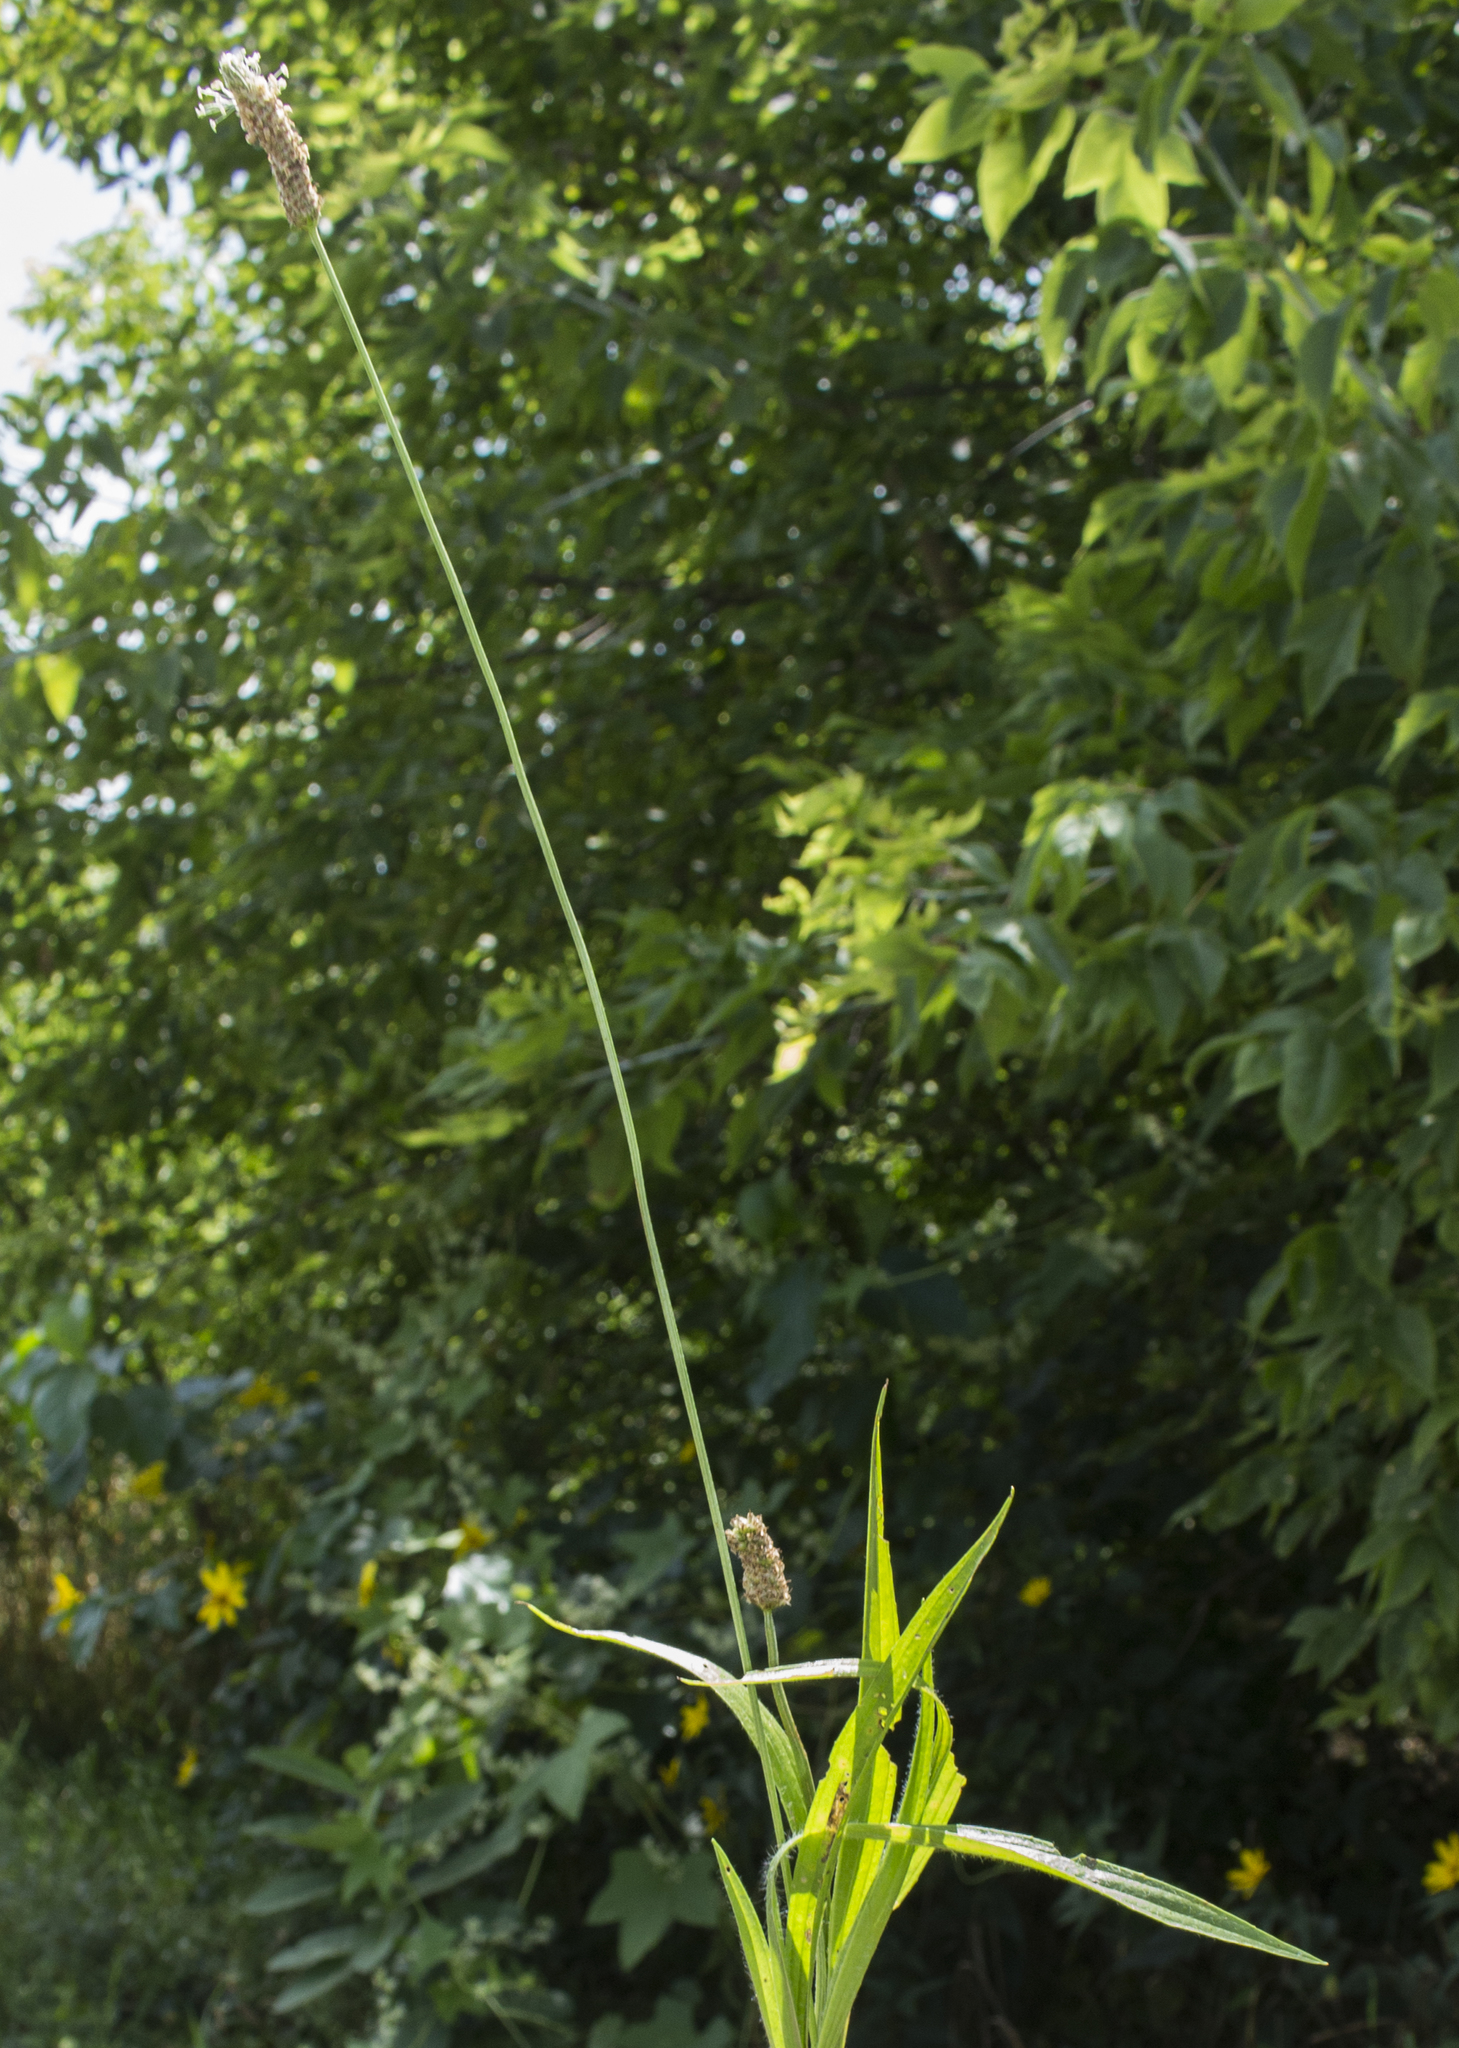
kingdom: Plantae
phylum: Tracheophyta
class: Magnoliopsida
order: Lamiales
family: Plantaginaceae
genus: Plantago
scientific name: Plantago lanceolata
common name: Ribwort plantain
